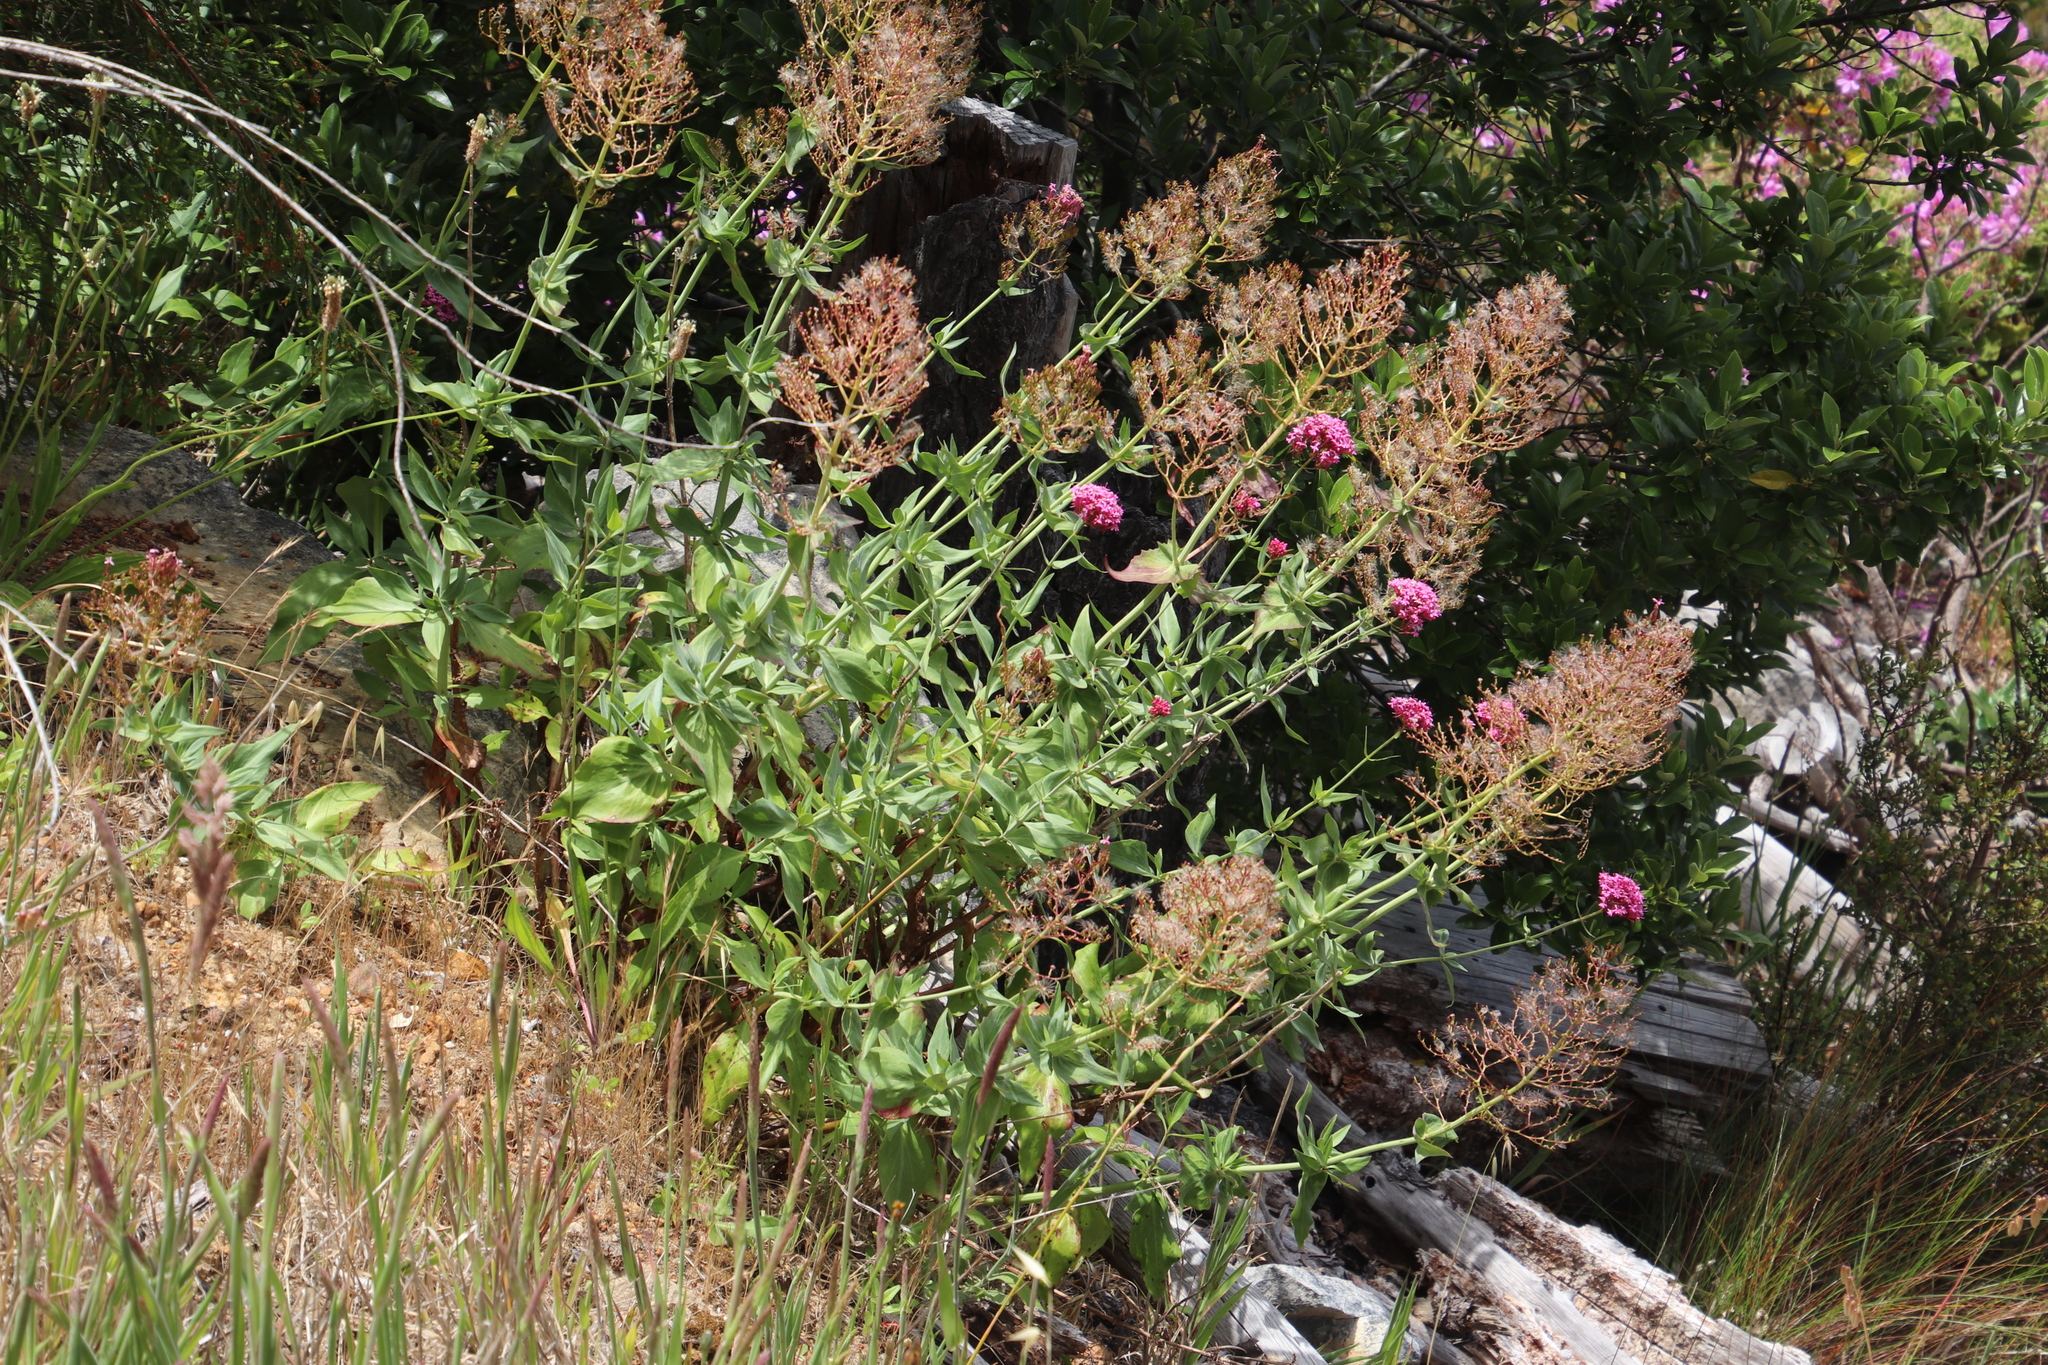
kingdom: Plantae
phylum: Tracheophyta
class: Magnoliopsida
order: Dipsacales
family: Caprifoliaceae
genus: Centranthus
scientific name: Centranthus ruber
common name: Red valerian
